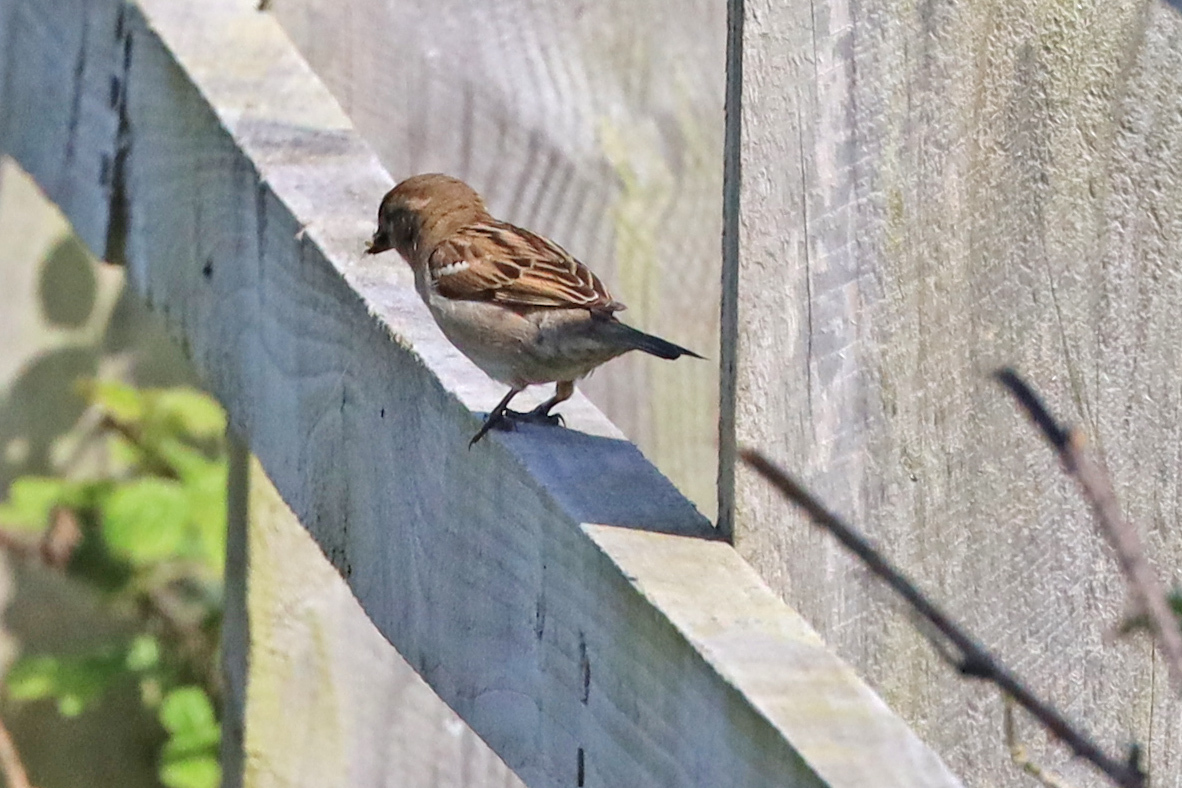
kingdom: Animalia
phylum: Chordata
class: Aves
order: Passeriformes
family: Passeridae
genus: Passer
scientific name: Passer domesticus
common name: House sparrow
